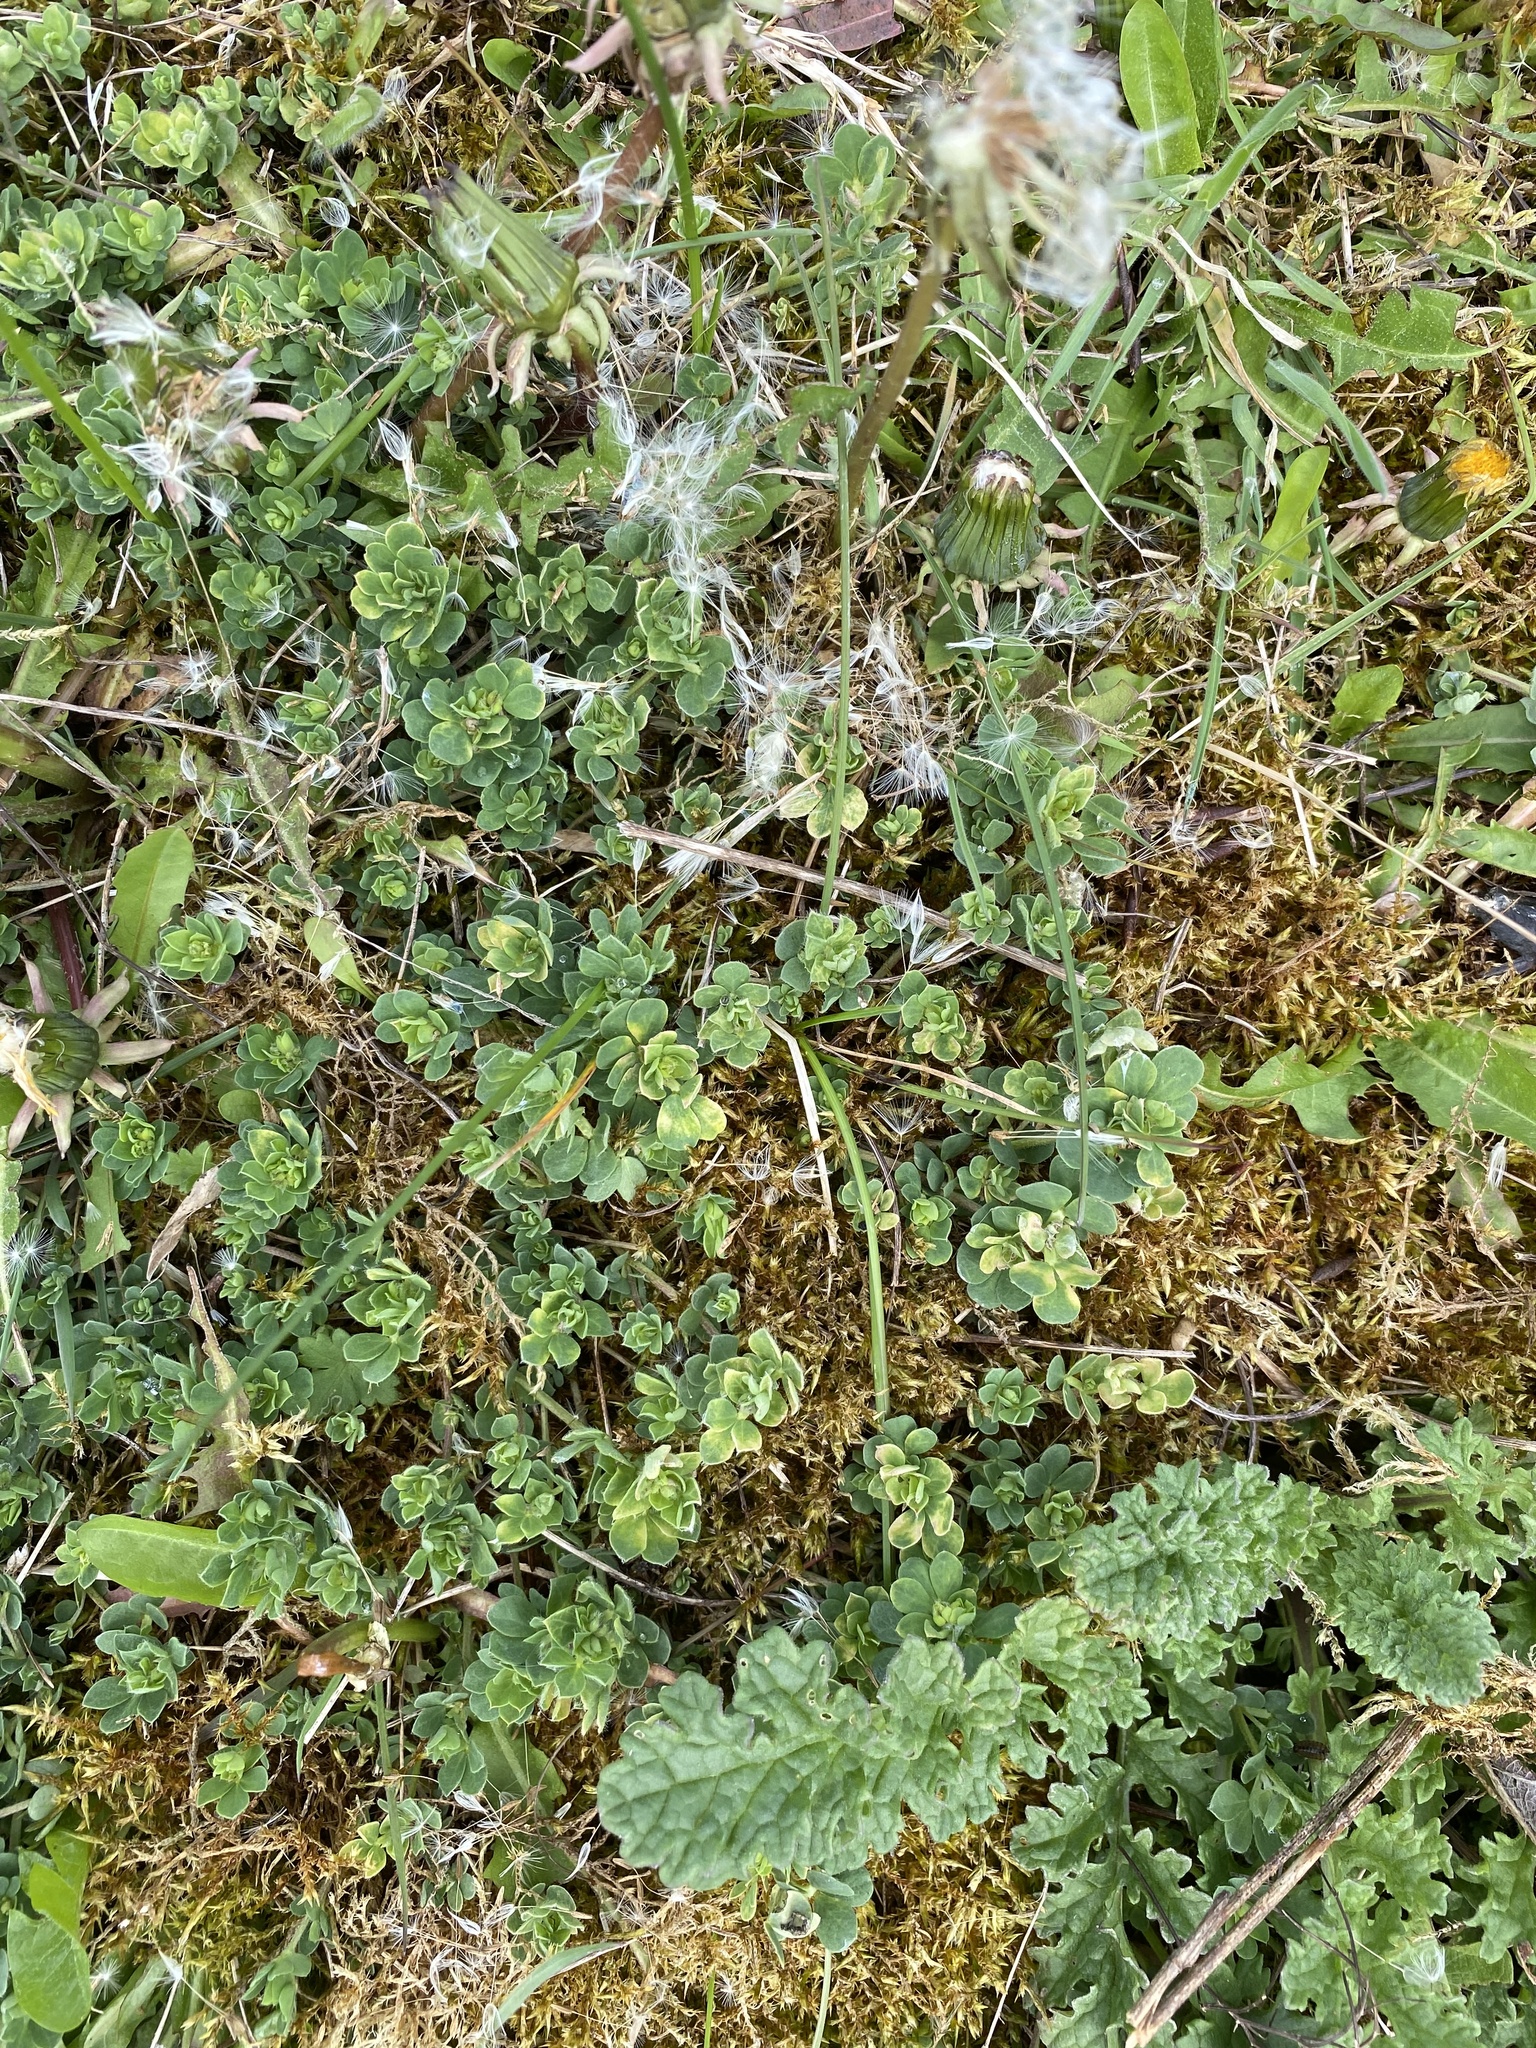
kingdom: Plantae
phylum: Tracheophyta
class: Magnoliopsida
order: Fabales
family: Fabaceae
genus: Lotus
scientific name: Lotus corniculatus
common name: Common bird's-foot-trefoil
